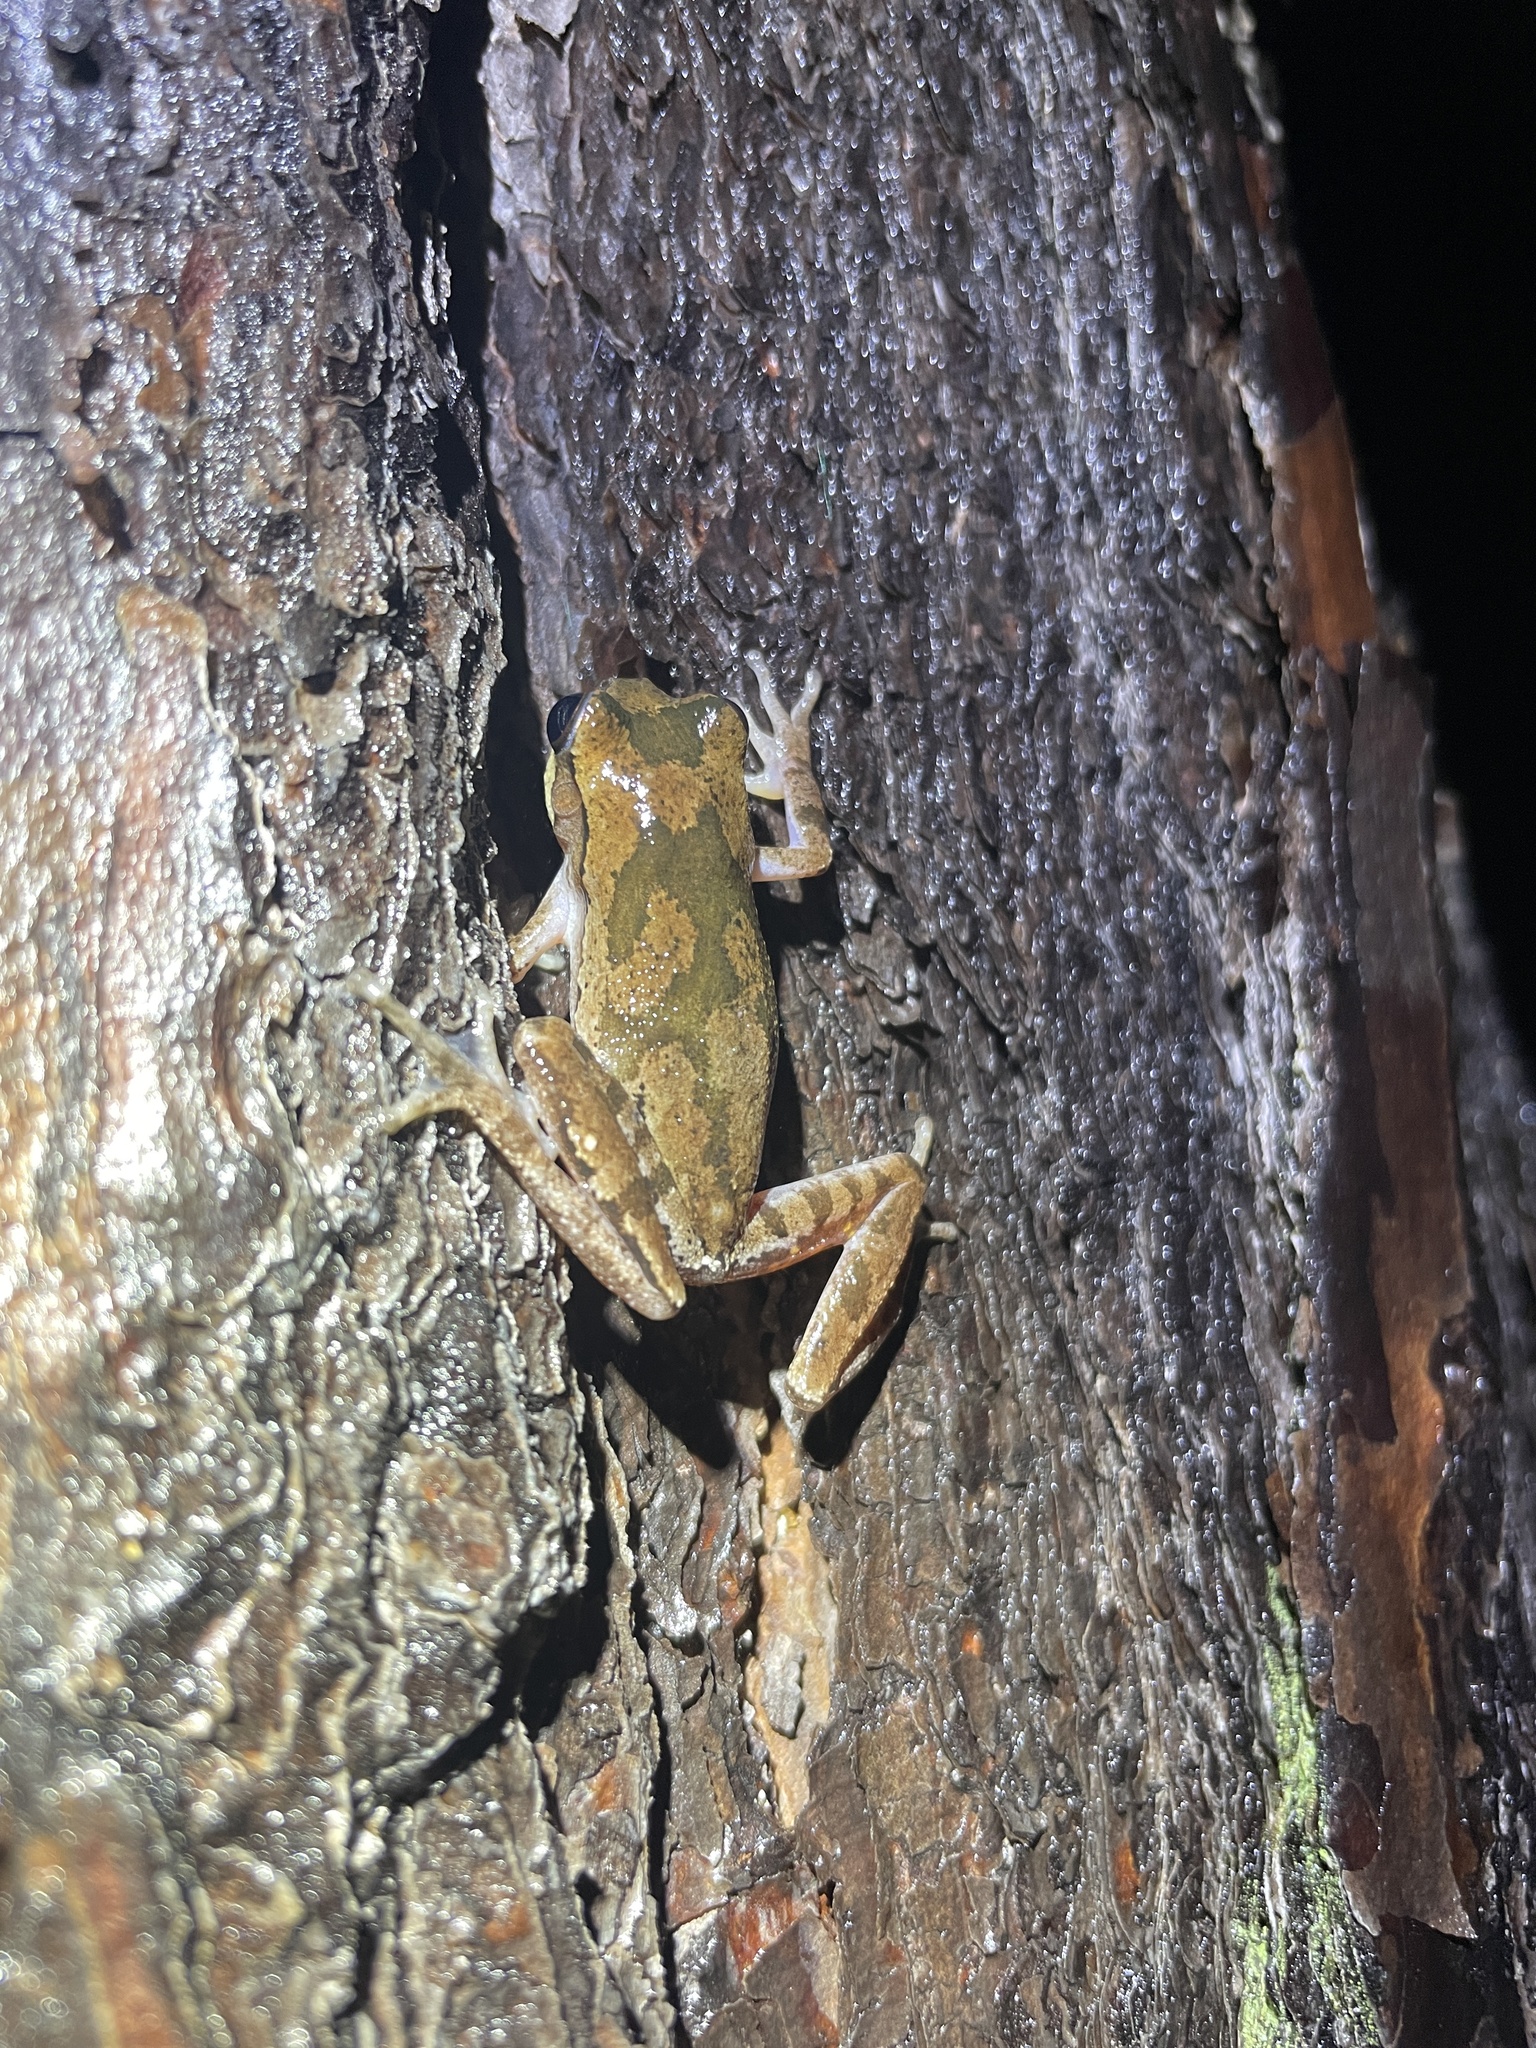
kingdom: Animalia
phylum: Chordata
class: Amphibia
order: Anura
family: Hylidae
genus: Hyla
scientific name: Hyla femoralis
